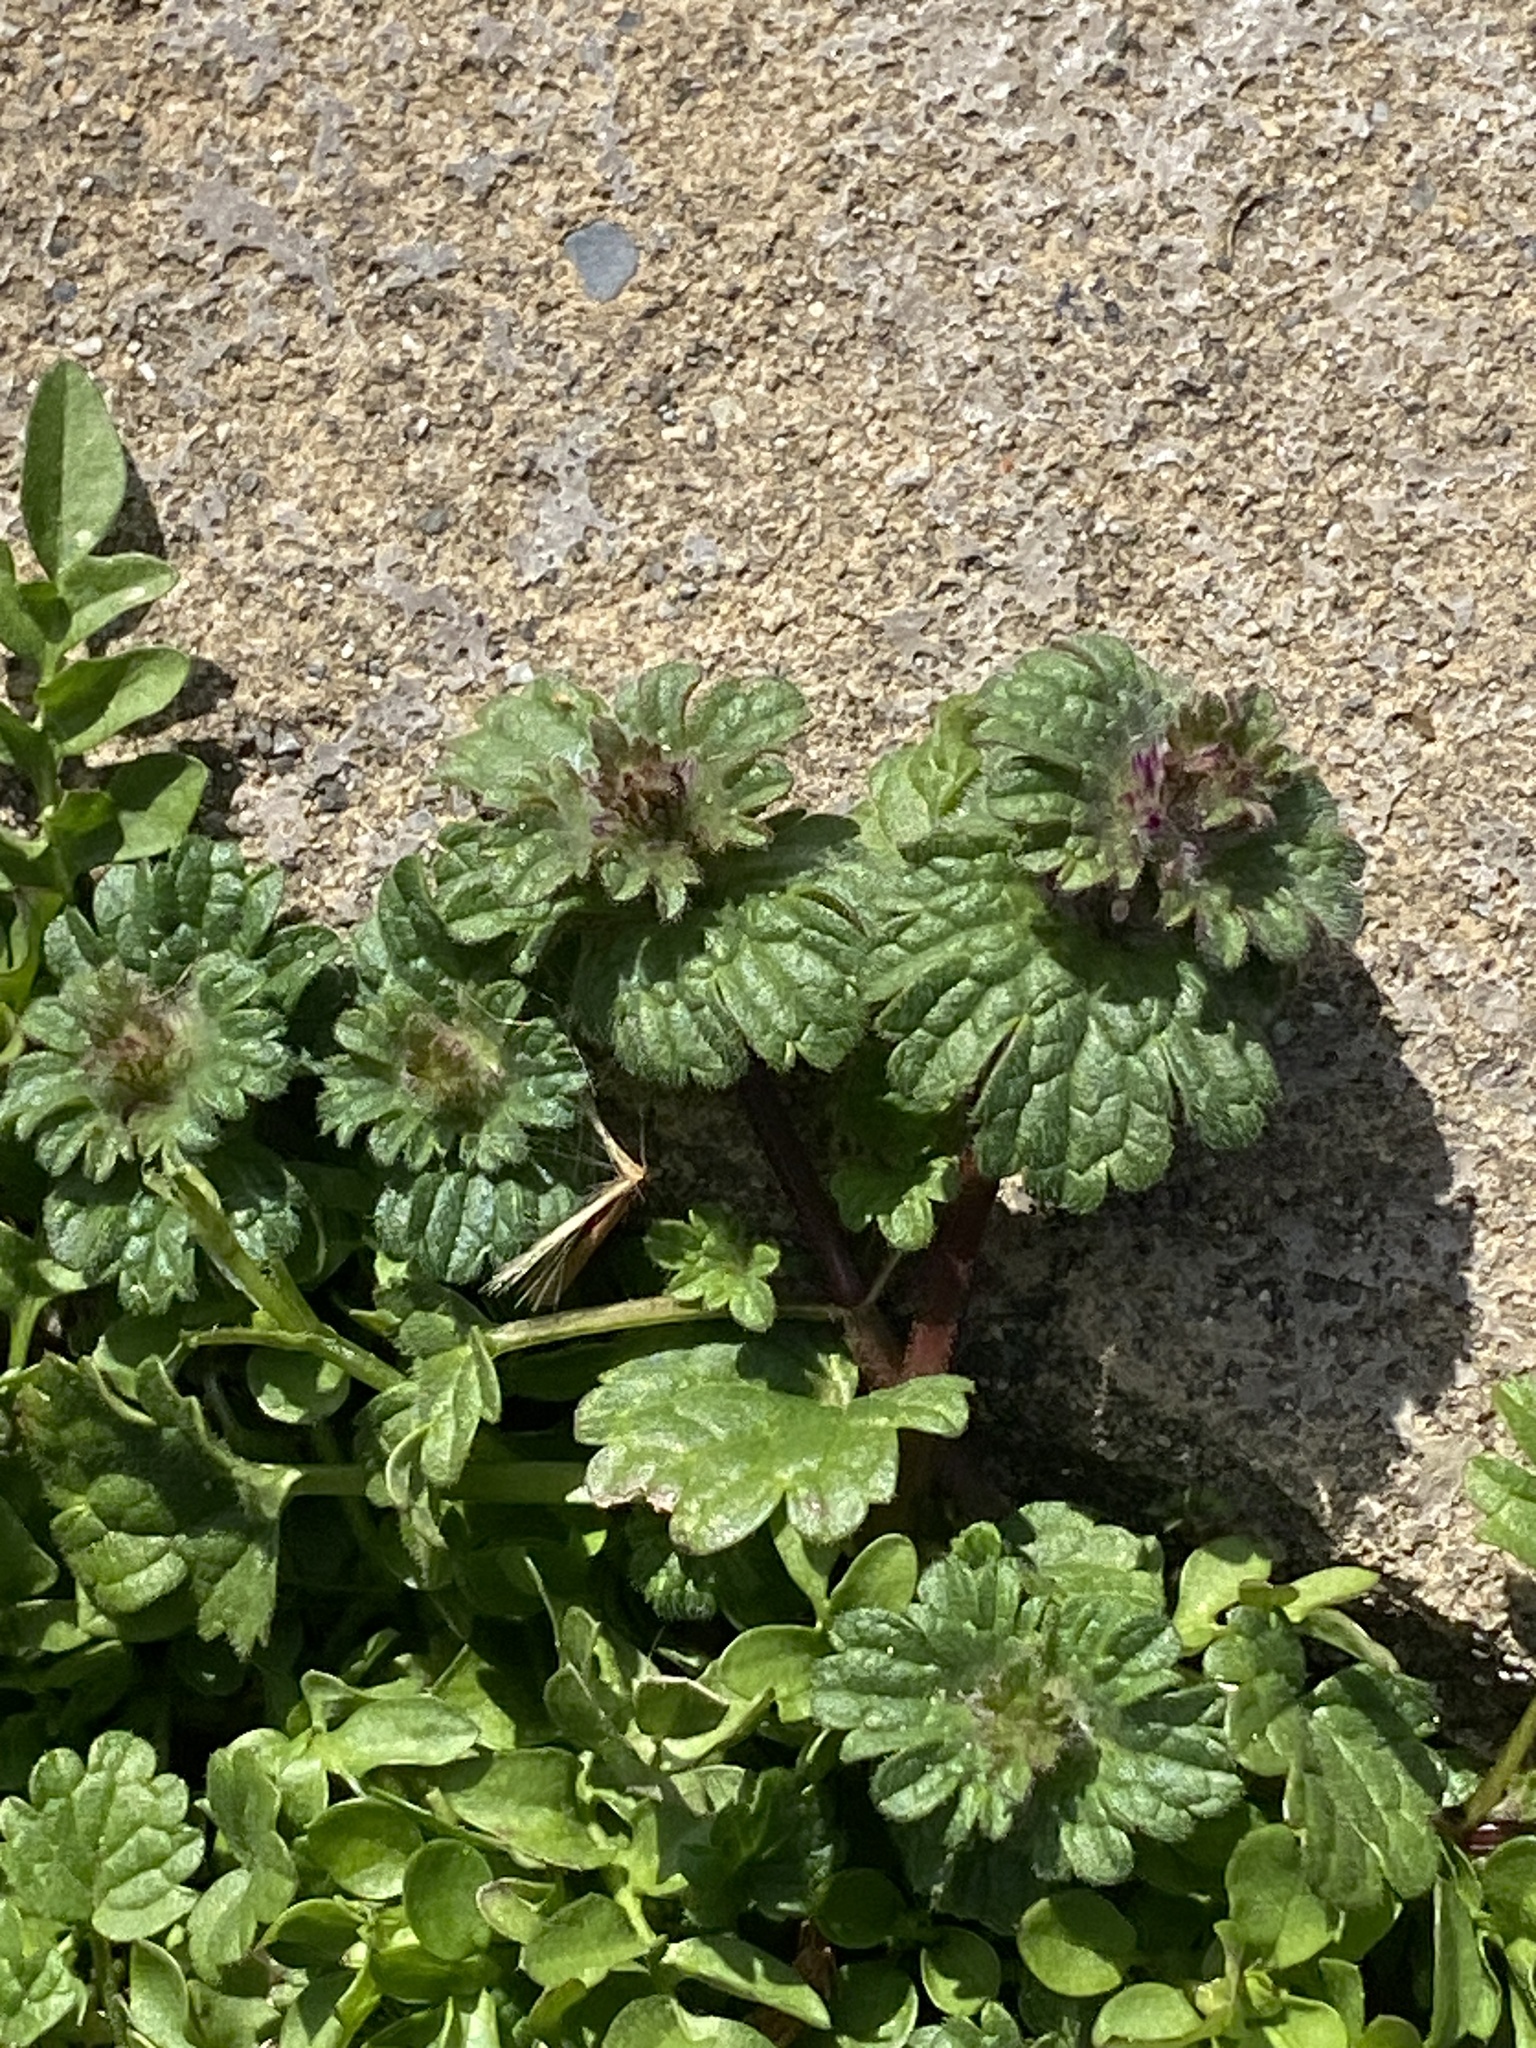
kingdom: Plantae
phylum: Tracheophyta
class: Magnoliopsida
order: Lamiales
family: Lamiaceae
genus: Lamium
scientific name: Lamium amplexicaule
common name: Henbit dead-nettle
